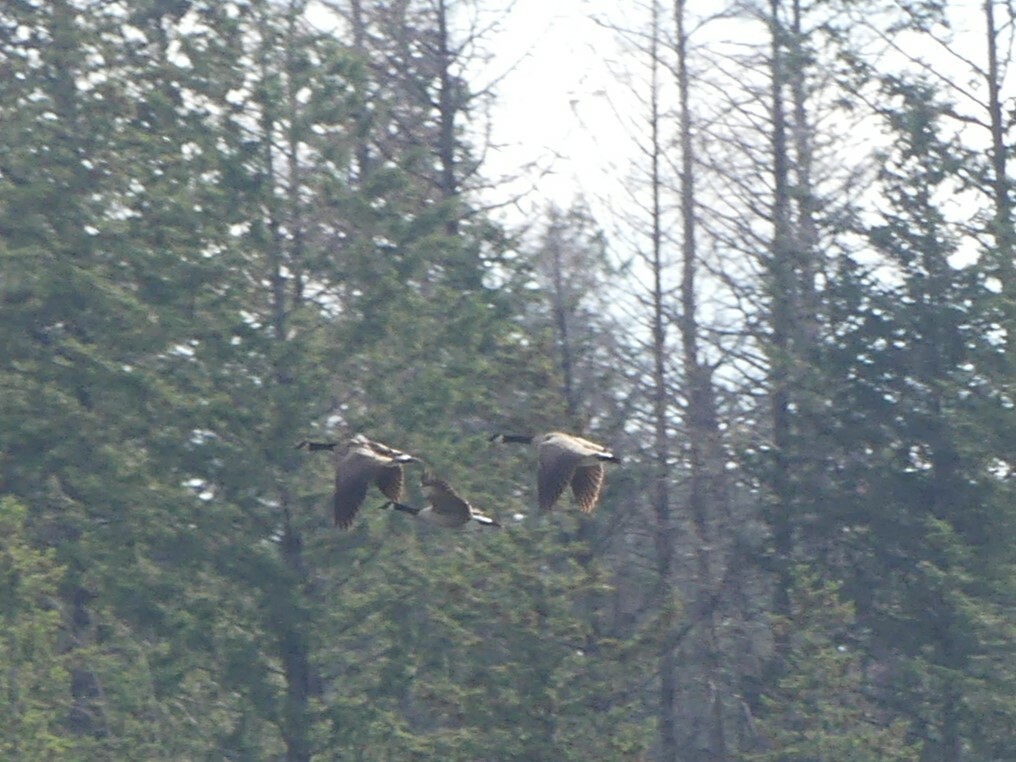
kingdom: Animalia
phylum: Chordata
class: Aves
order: Anseriformes
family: Anatidae
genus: Branta
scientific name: Branta canadensis
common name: Canada goose
